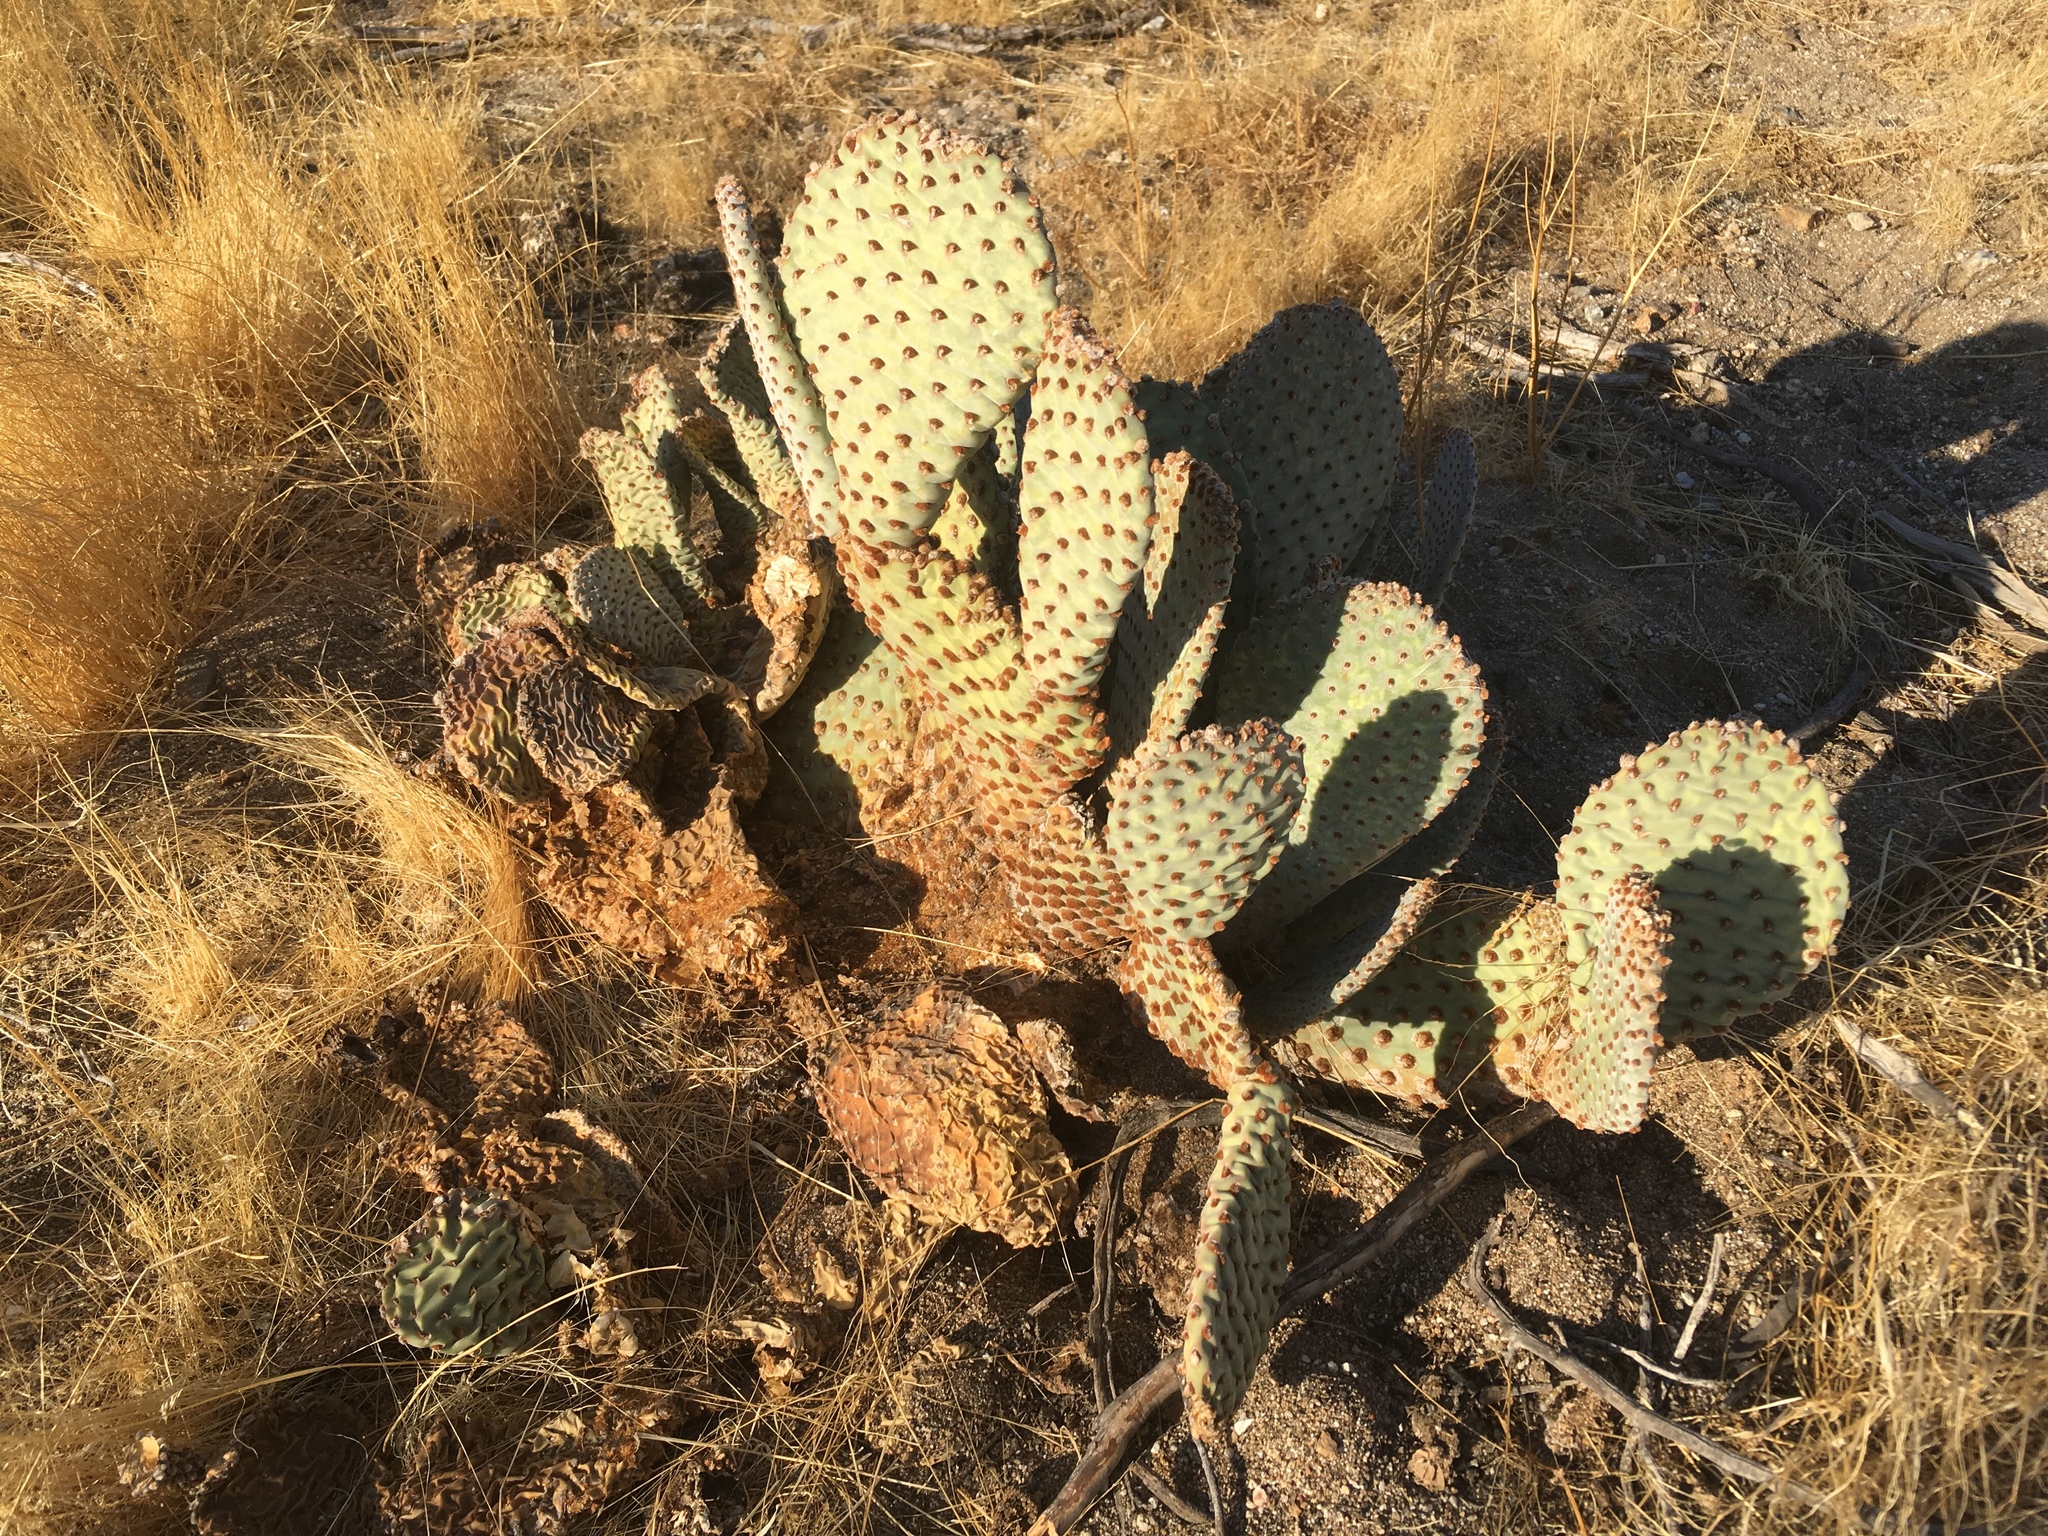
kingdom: Plantae
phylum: Tracheophyta
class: Magnoliopsida
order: Caryophyllales
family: Cactaceae
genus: Opuntia
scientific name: Opuntia basilaris
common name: Beavertail prickly-pear
